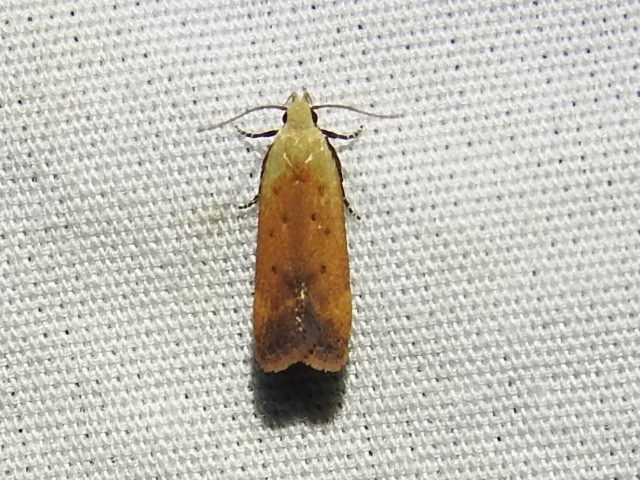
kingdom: Animalia
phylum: Arthropoda
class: Insecta
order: Lepidoptera
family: Gelechiidae
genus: Anacampsis
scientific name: Anacampsis fullonella
